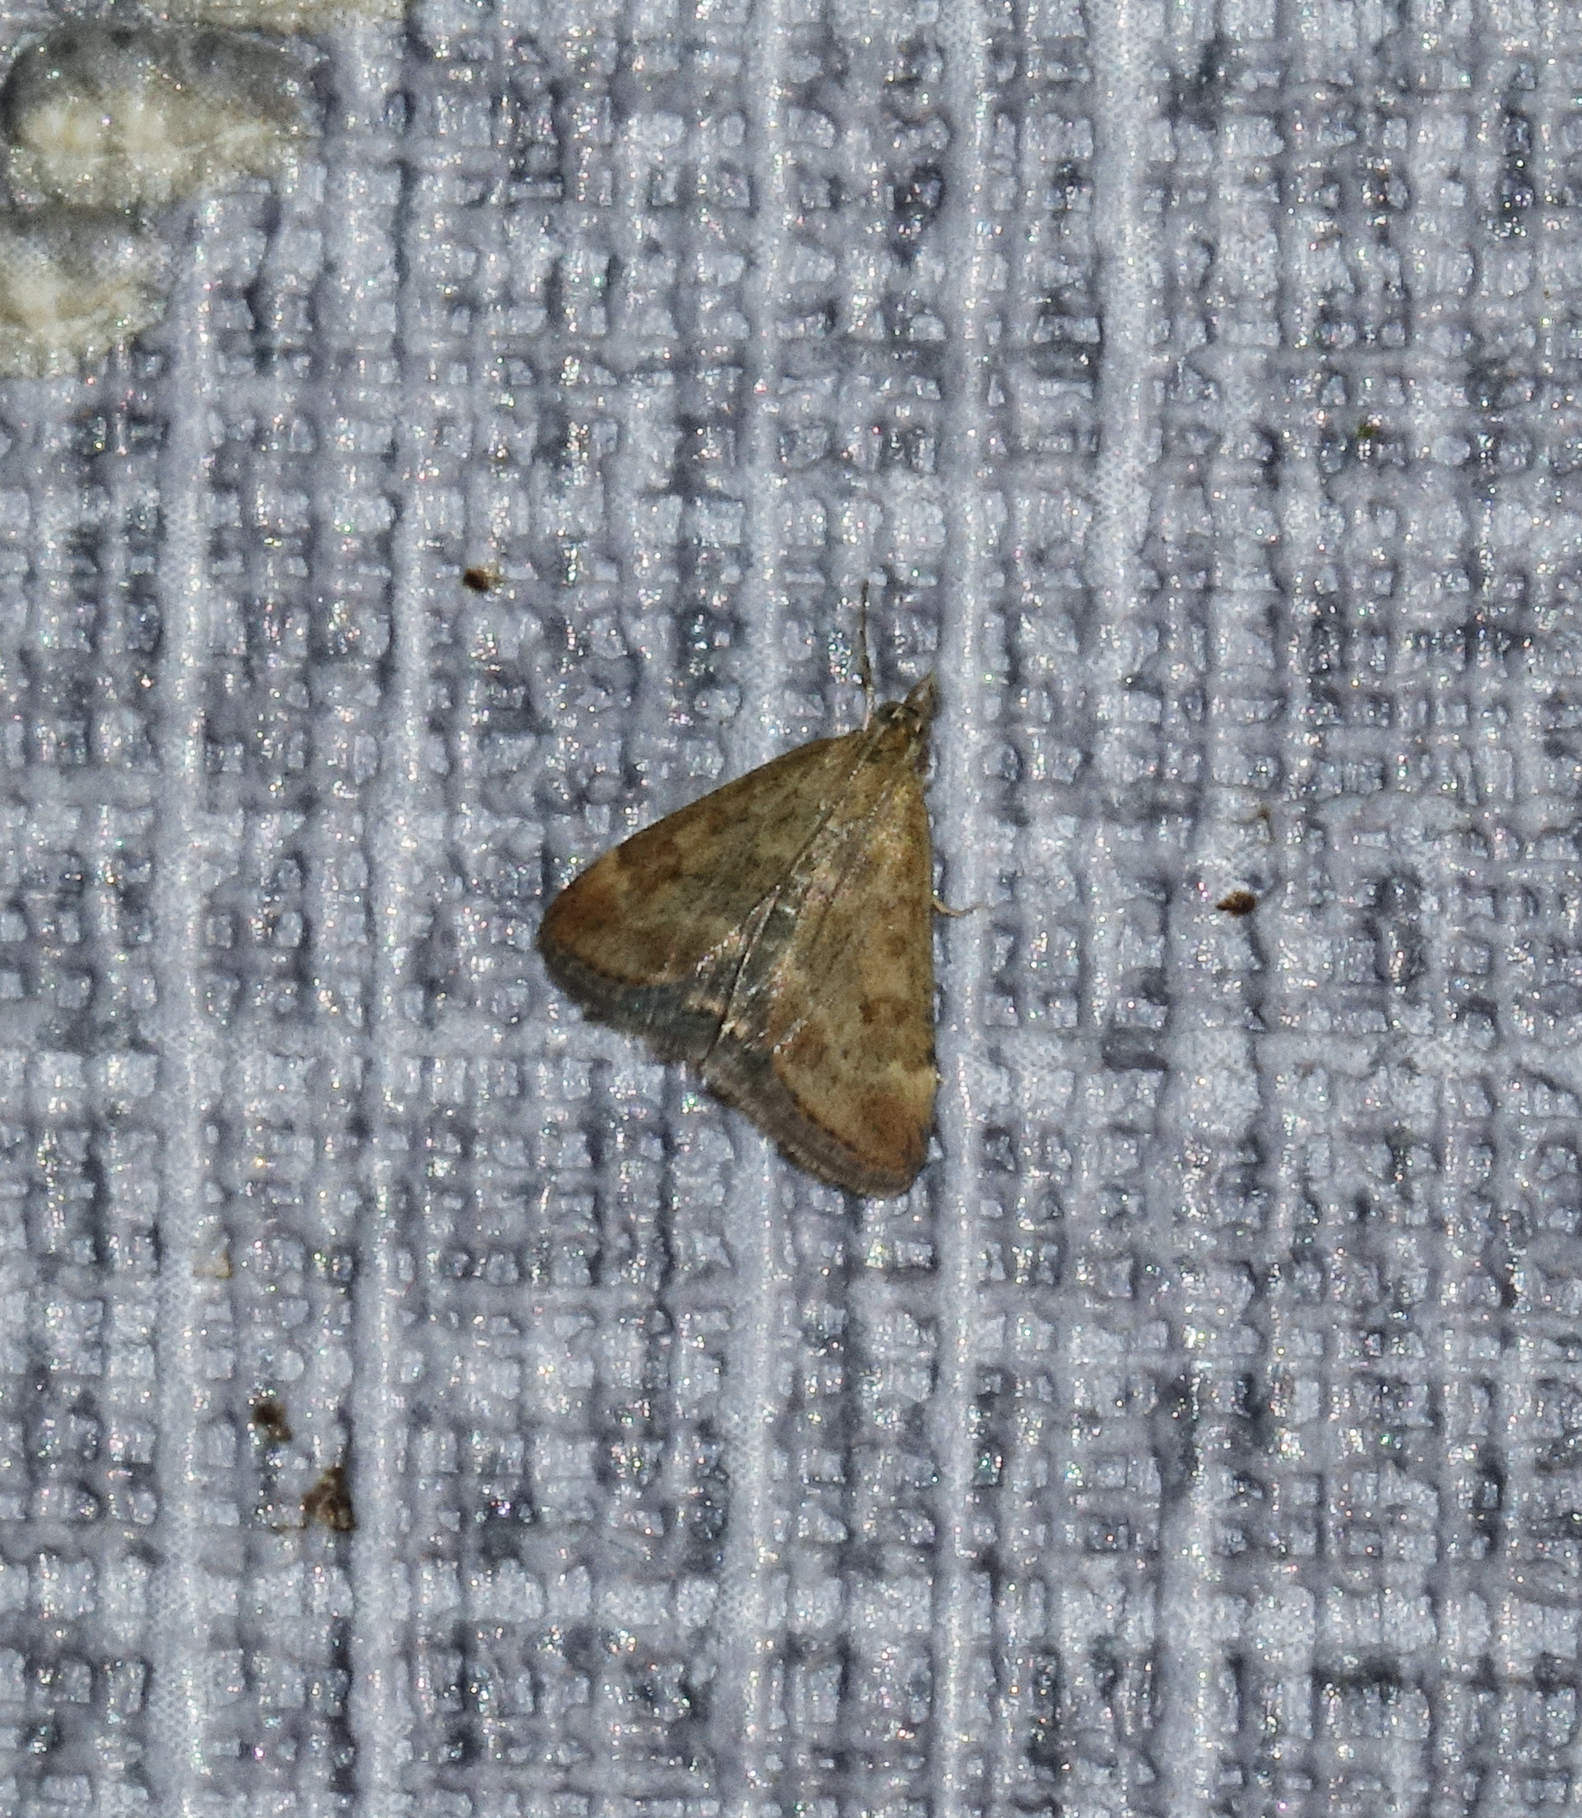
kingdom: Animalia
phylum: Arthropoda
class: Insecta
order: Lepidoptera
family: Crambidae
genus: Pyrausta
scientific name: Pyrausta despicata
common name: Straw-barred pearl
